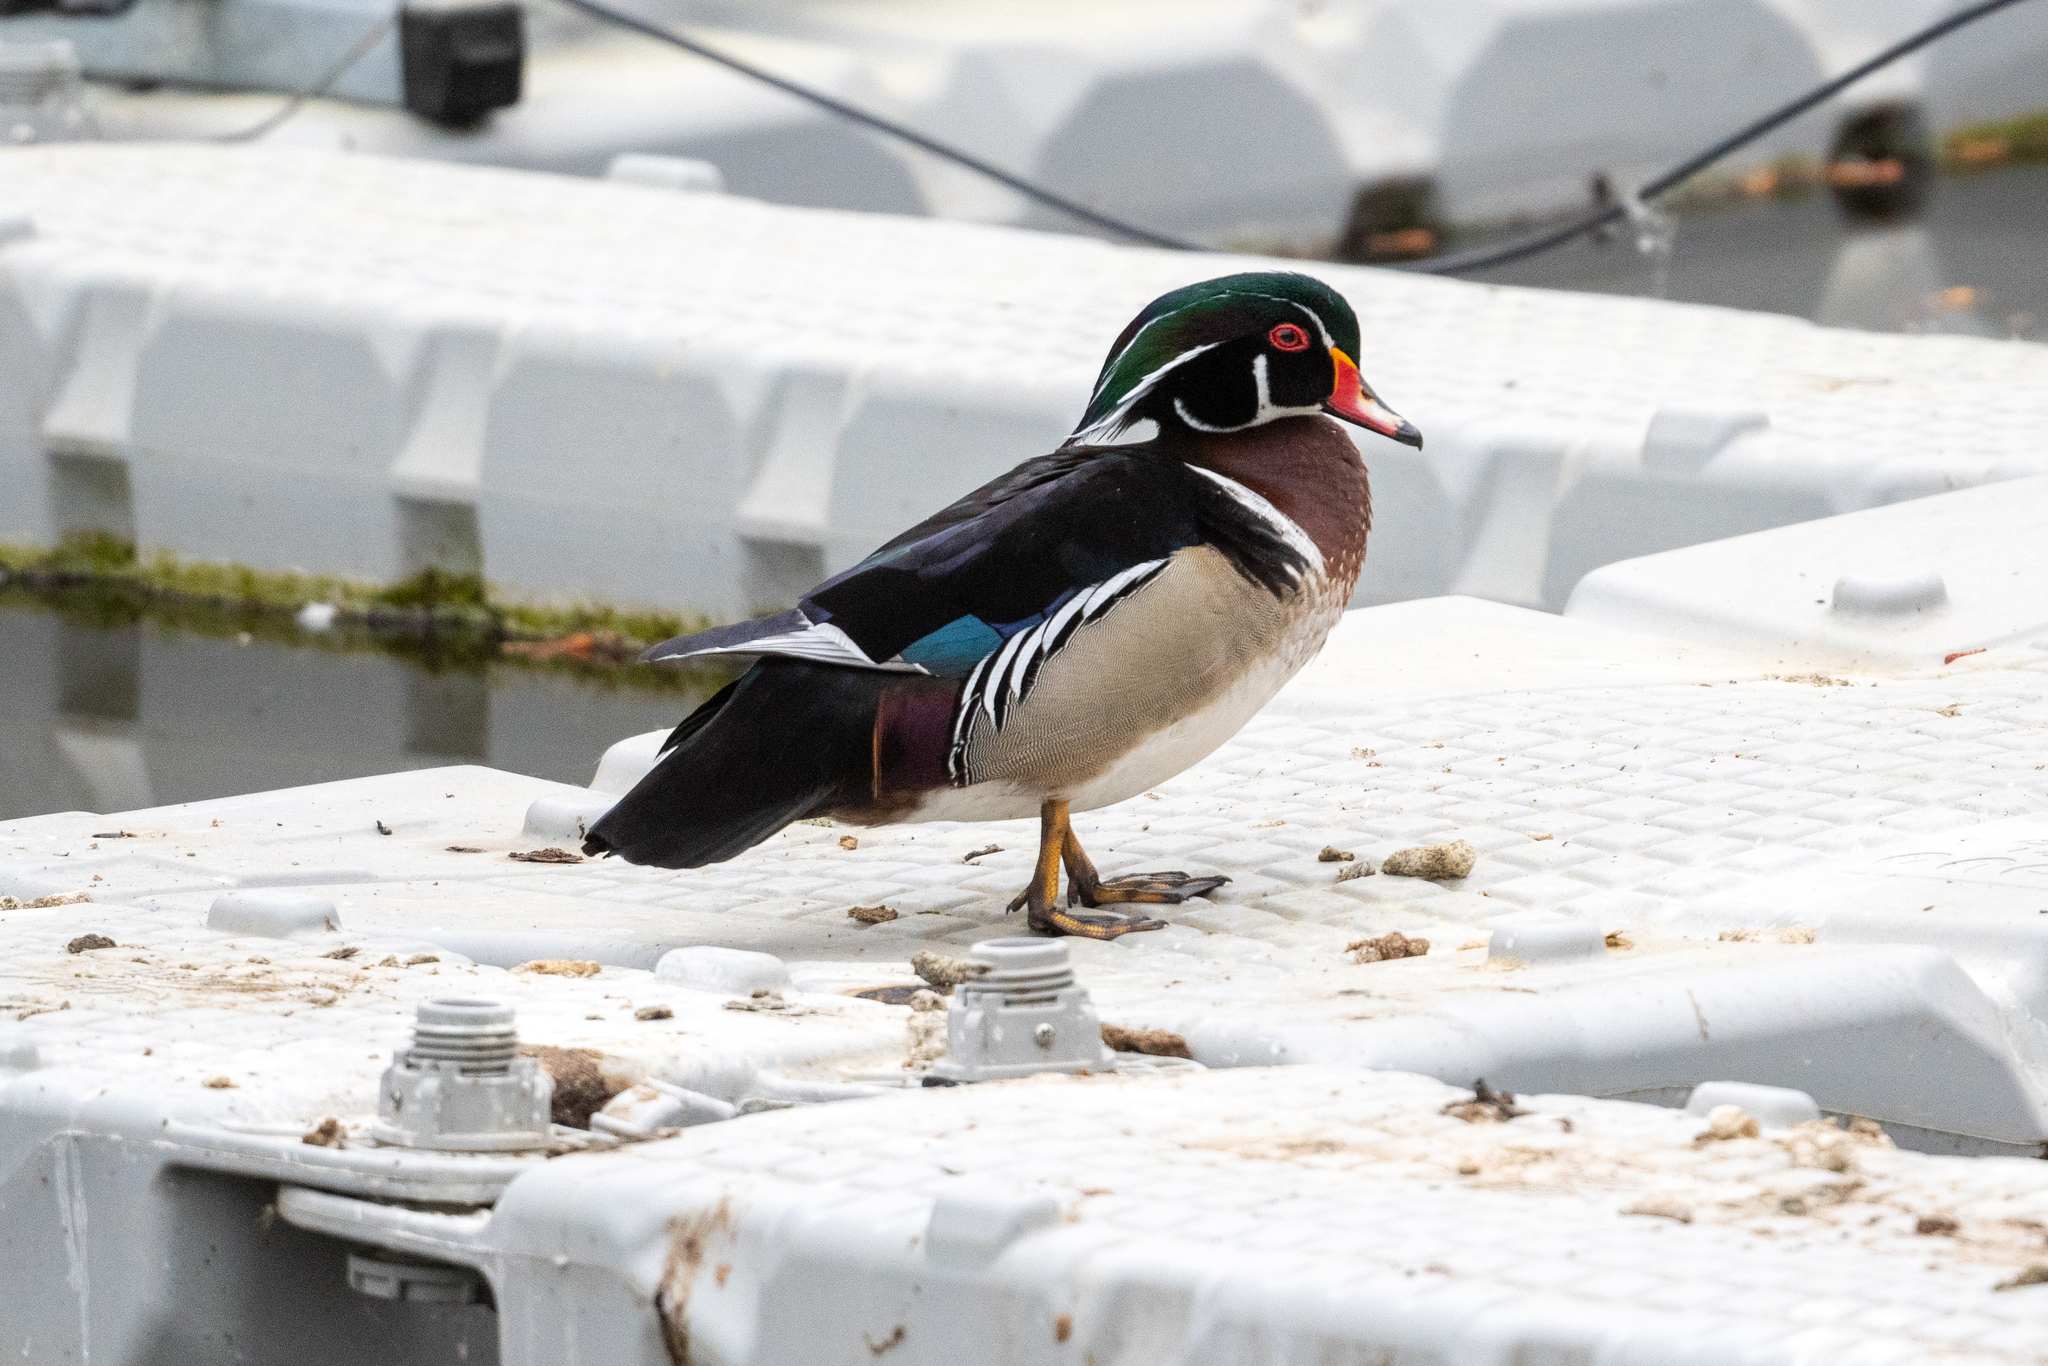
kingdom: Animalia
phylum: Chordata
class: Aves
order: Anseriformes
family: Anatidae
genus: Aix
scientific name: Aix sponsa
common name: Wood duck
